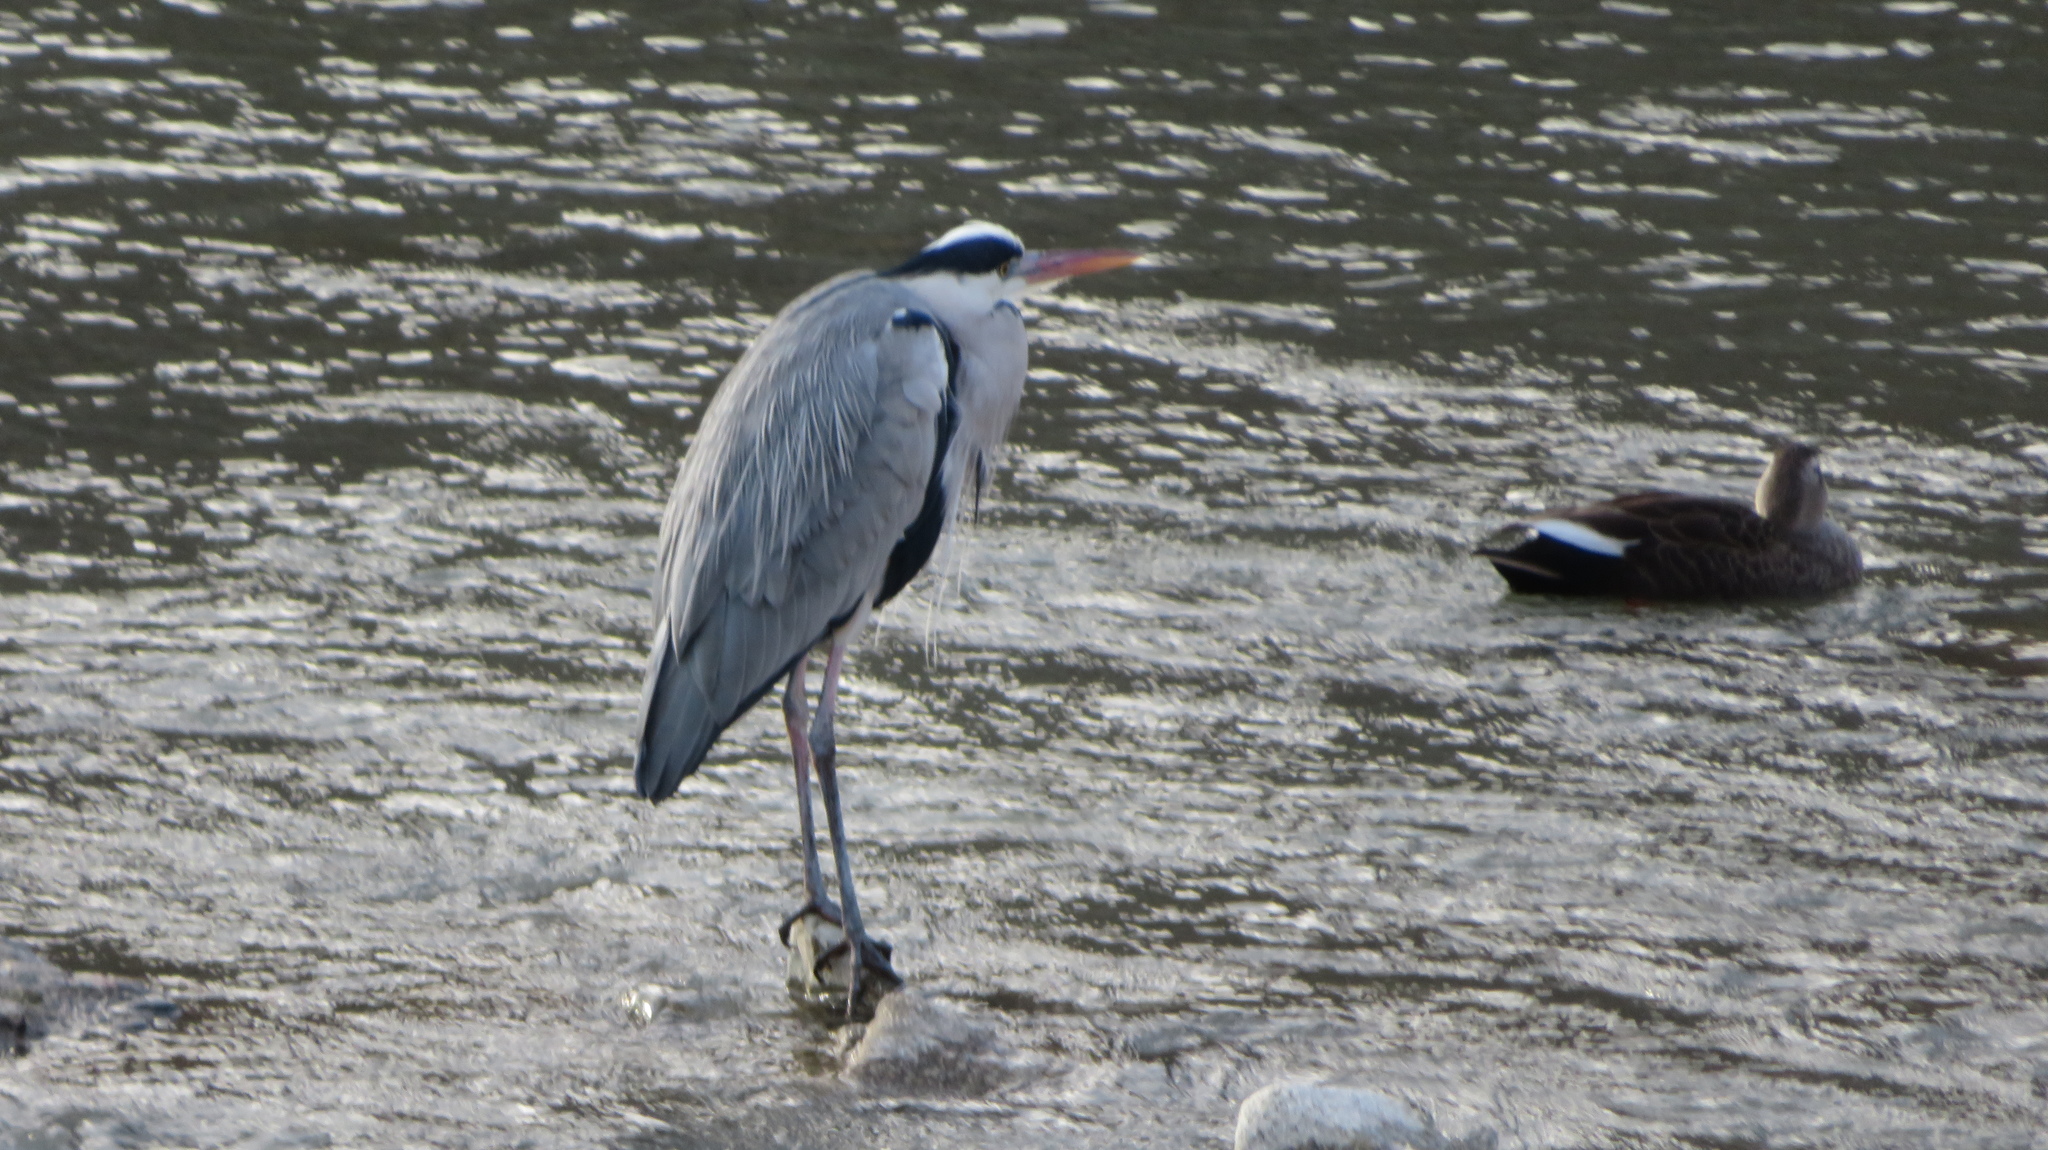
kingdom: Animalia
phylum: Chordata
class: Aves
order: Pelecaniformes
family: Ardeidae
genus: Ardea
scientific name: Ardea cinerea
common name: Grey heron
